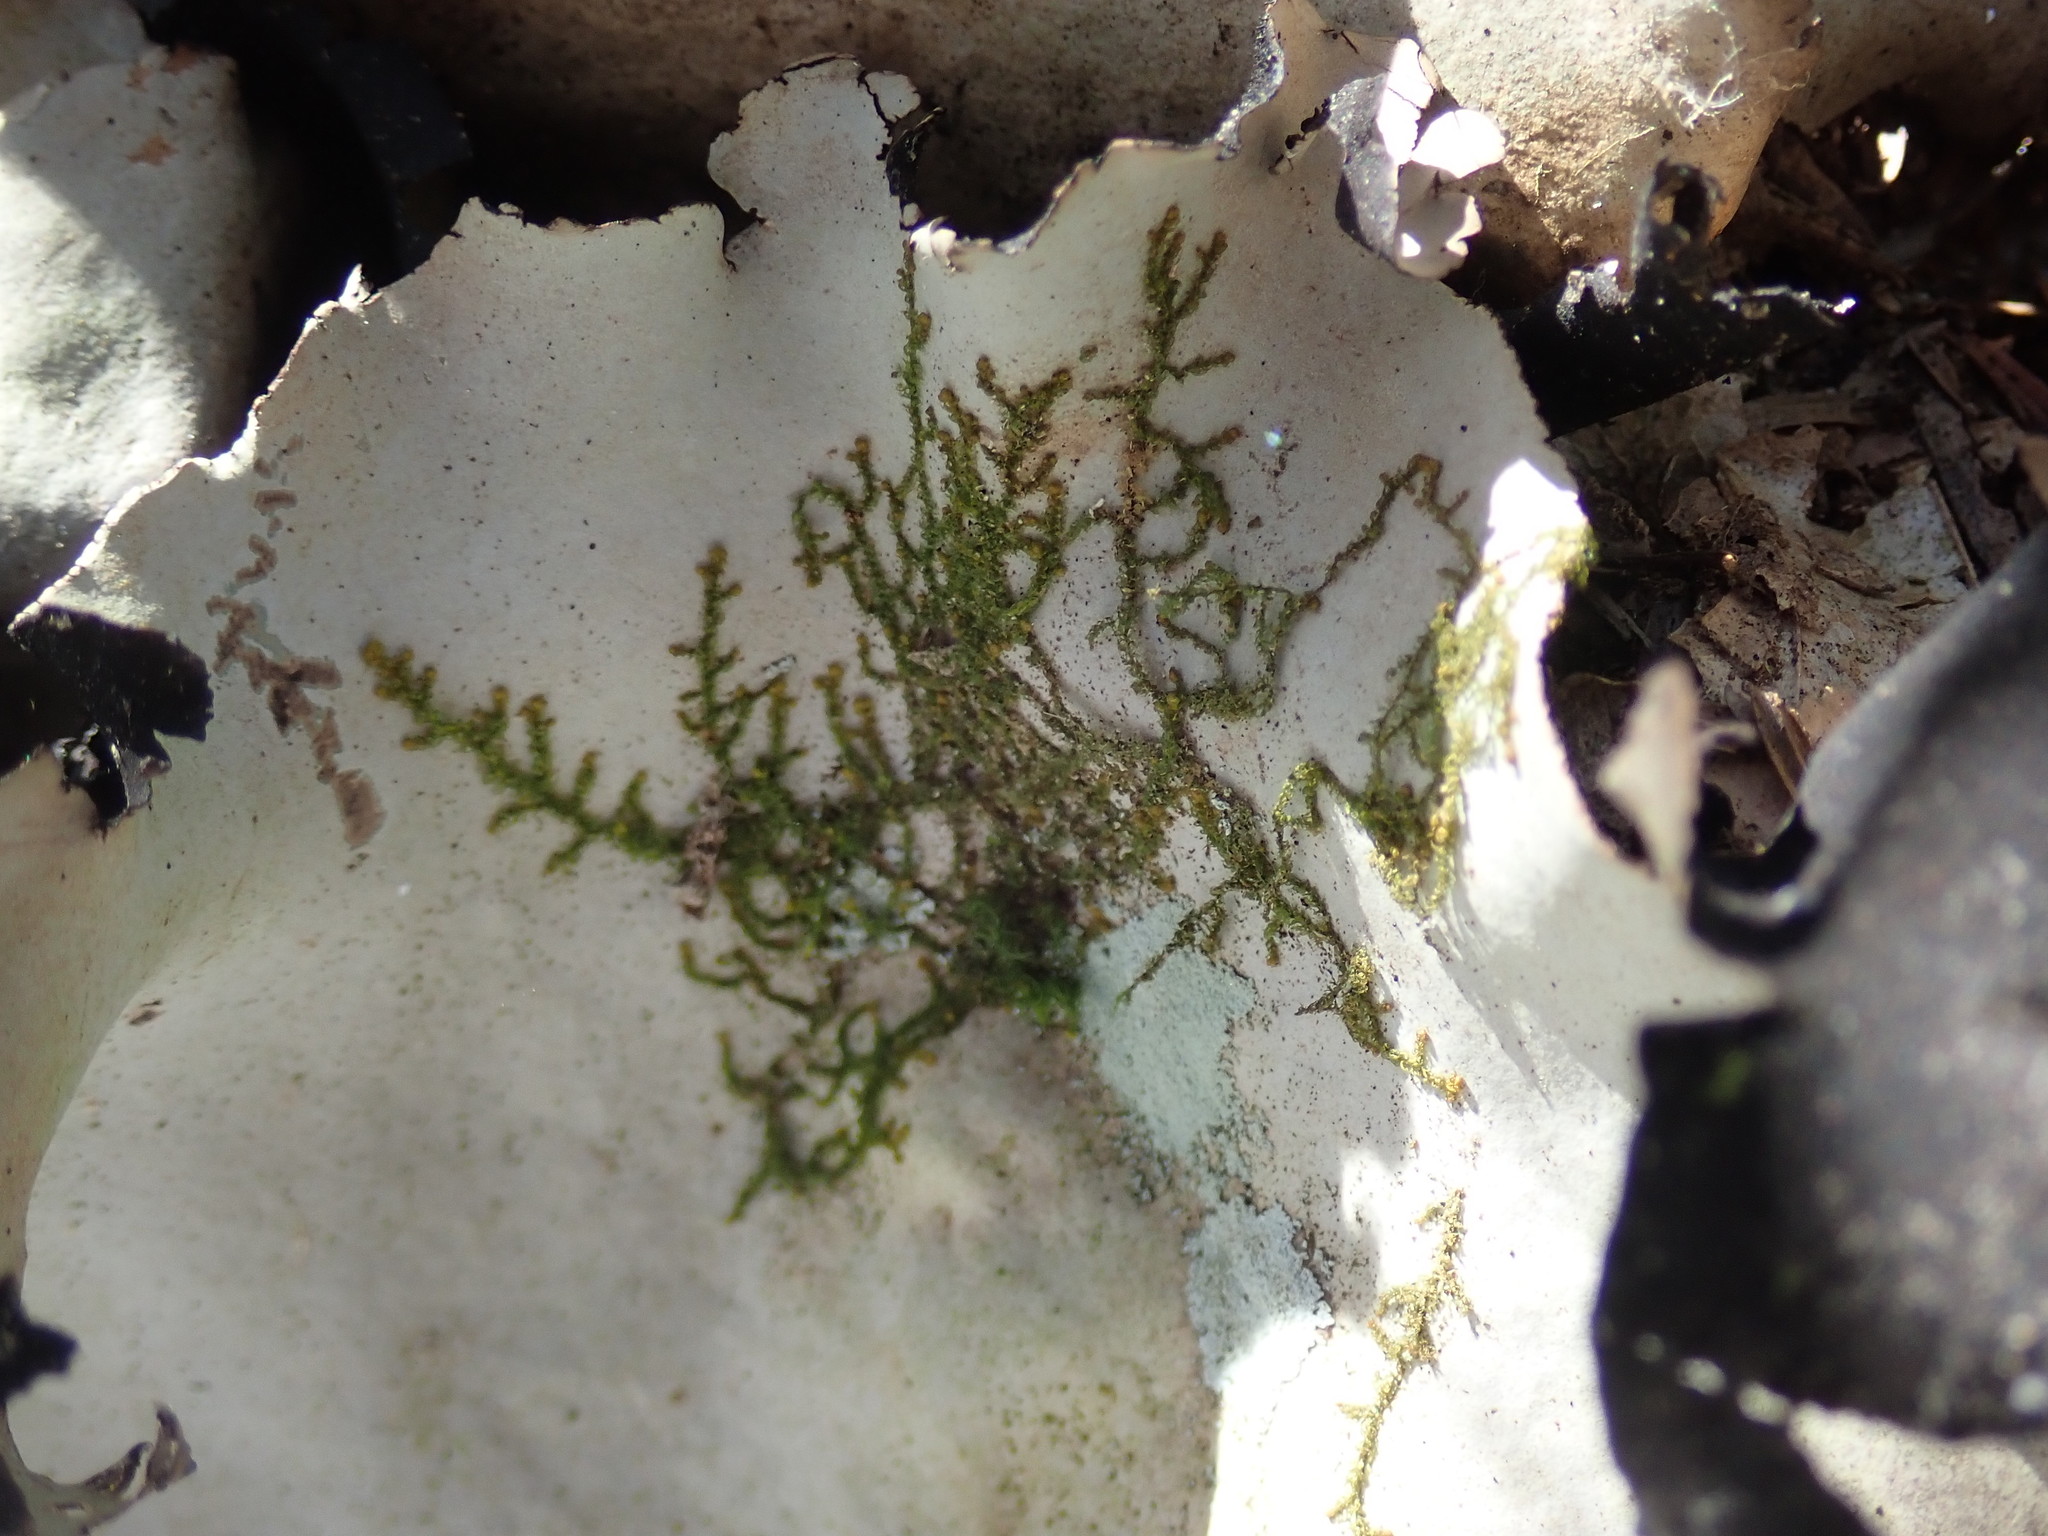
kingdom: Plantae
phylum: Marchantiophyta
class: Jungermanniopsida
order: Porellales
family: Frullaniaceae
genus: Frullania
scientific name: Frullania
